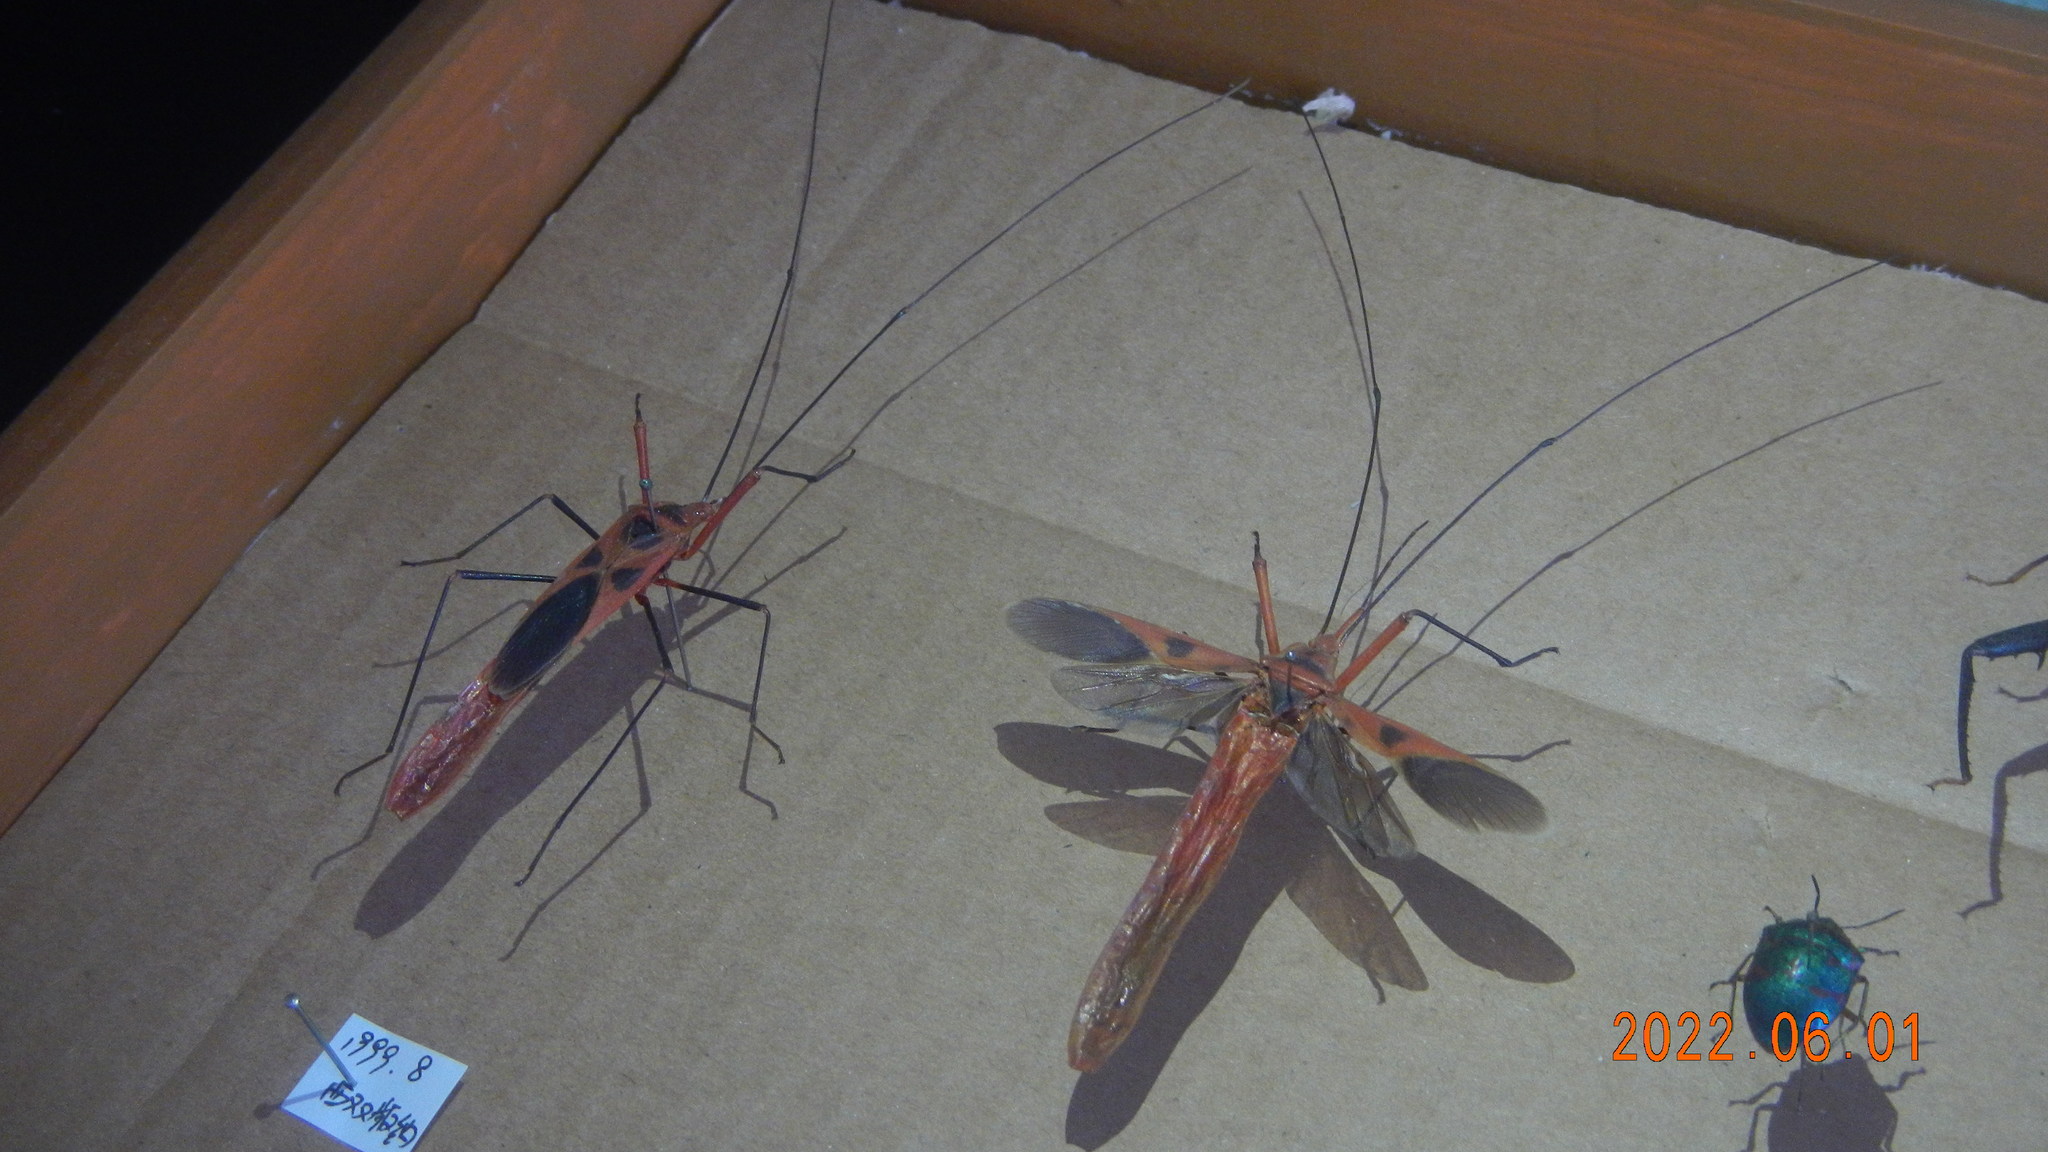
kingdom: Animalia
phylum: Arthropoda
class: Insecta
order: Hemiptera
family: Largidae
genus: Macrocheraia
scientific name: Macrocheraia grandis
